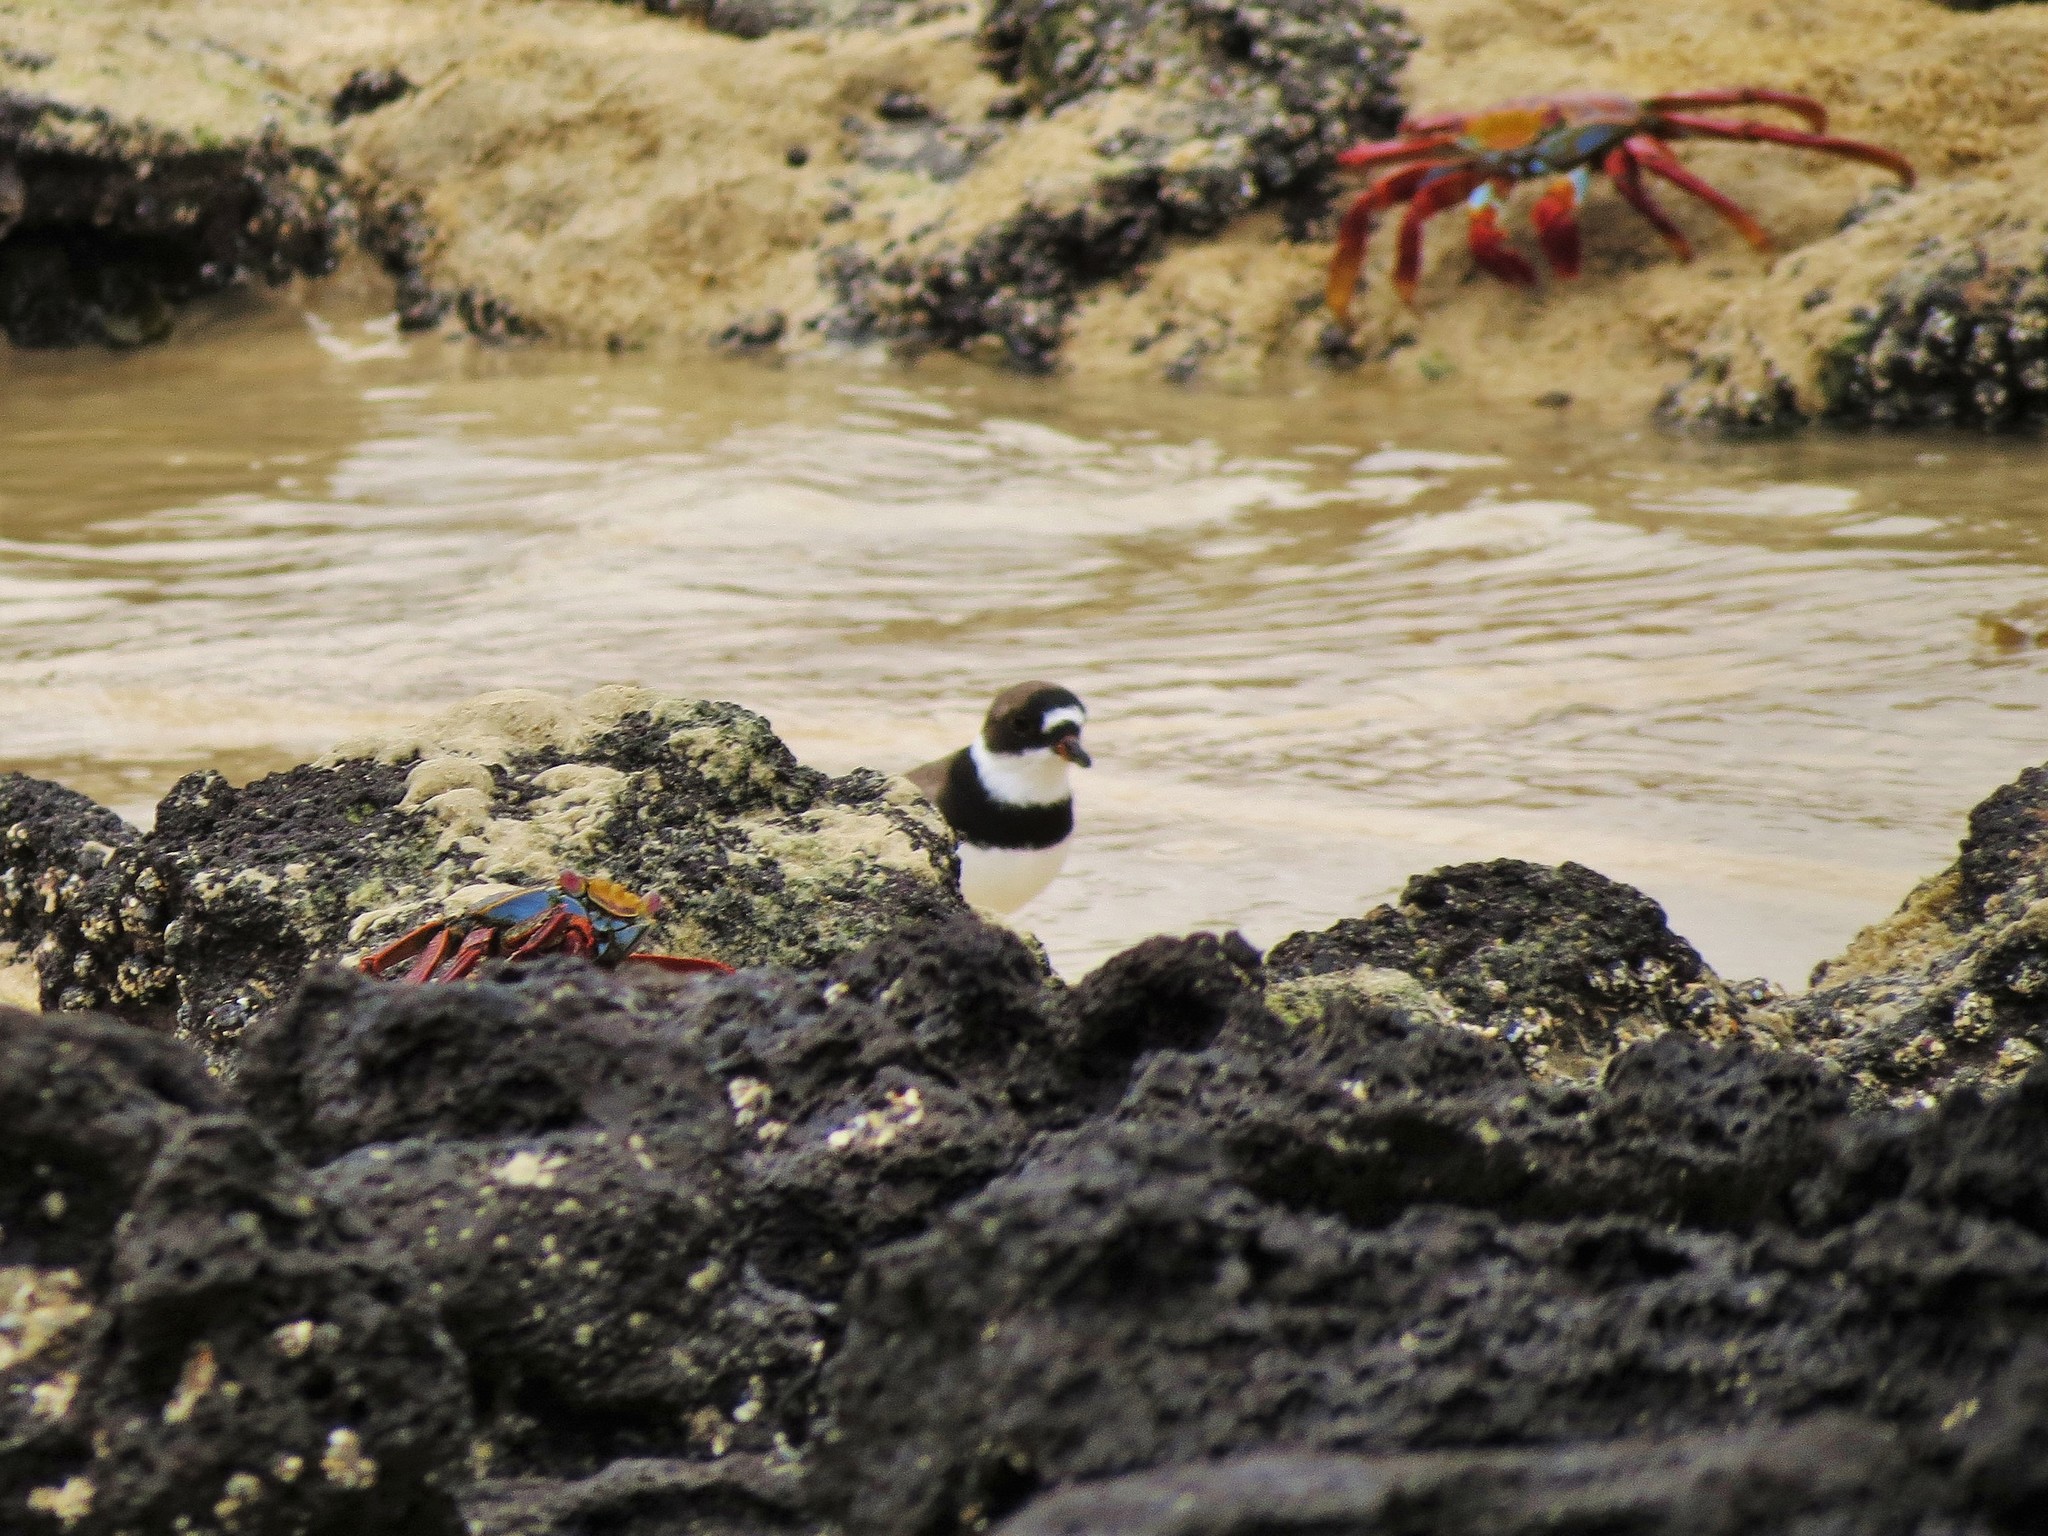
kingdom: Animalia
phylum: Chordata
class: Aves
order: Charadriiformes
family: Charadriidae
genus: Charadrius
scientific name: Charadrius semipalmatus
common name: Semipalmated plover
